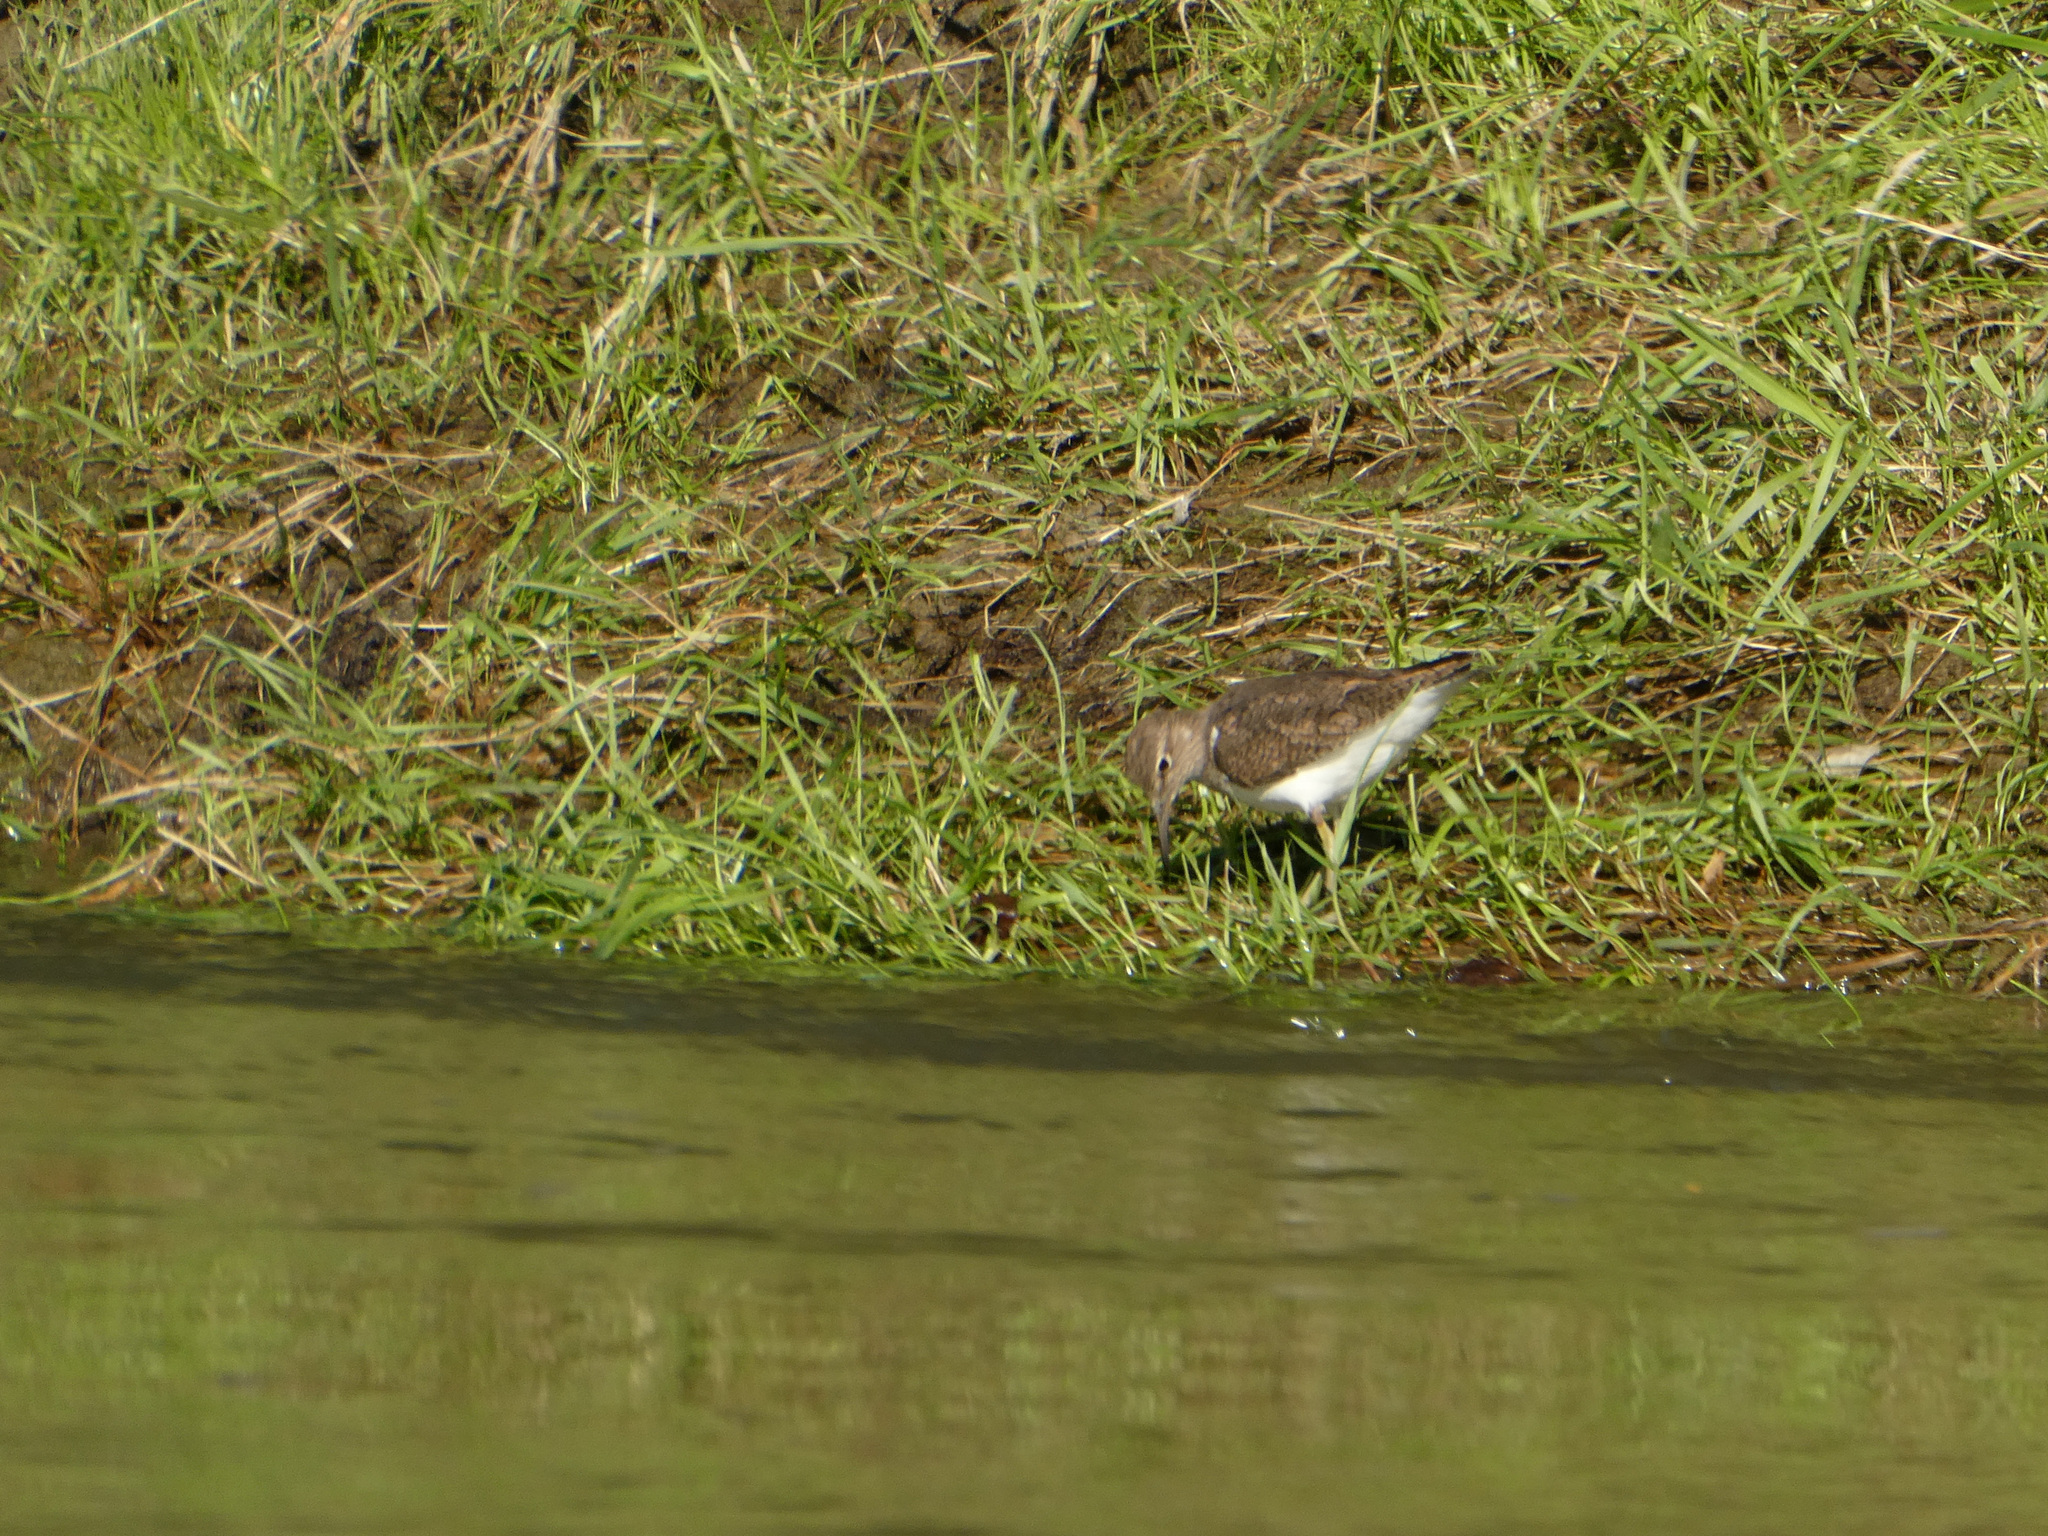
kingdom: Animalia
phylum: Chordata
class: Aves
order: Charadriiformes
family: Scolopacidae
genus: Actitis
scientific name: Actitis hypoleucos
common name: Common sandpiper
